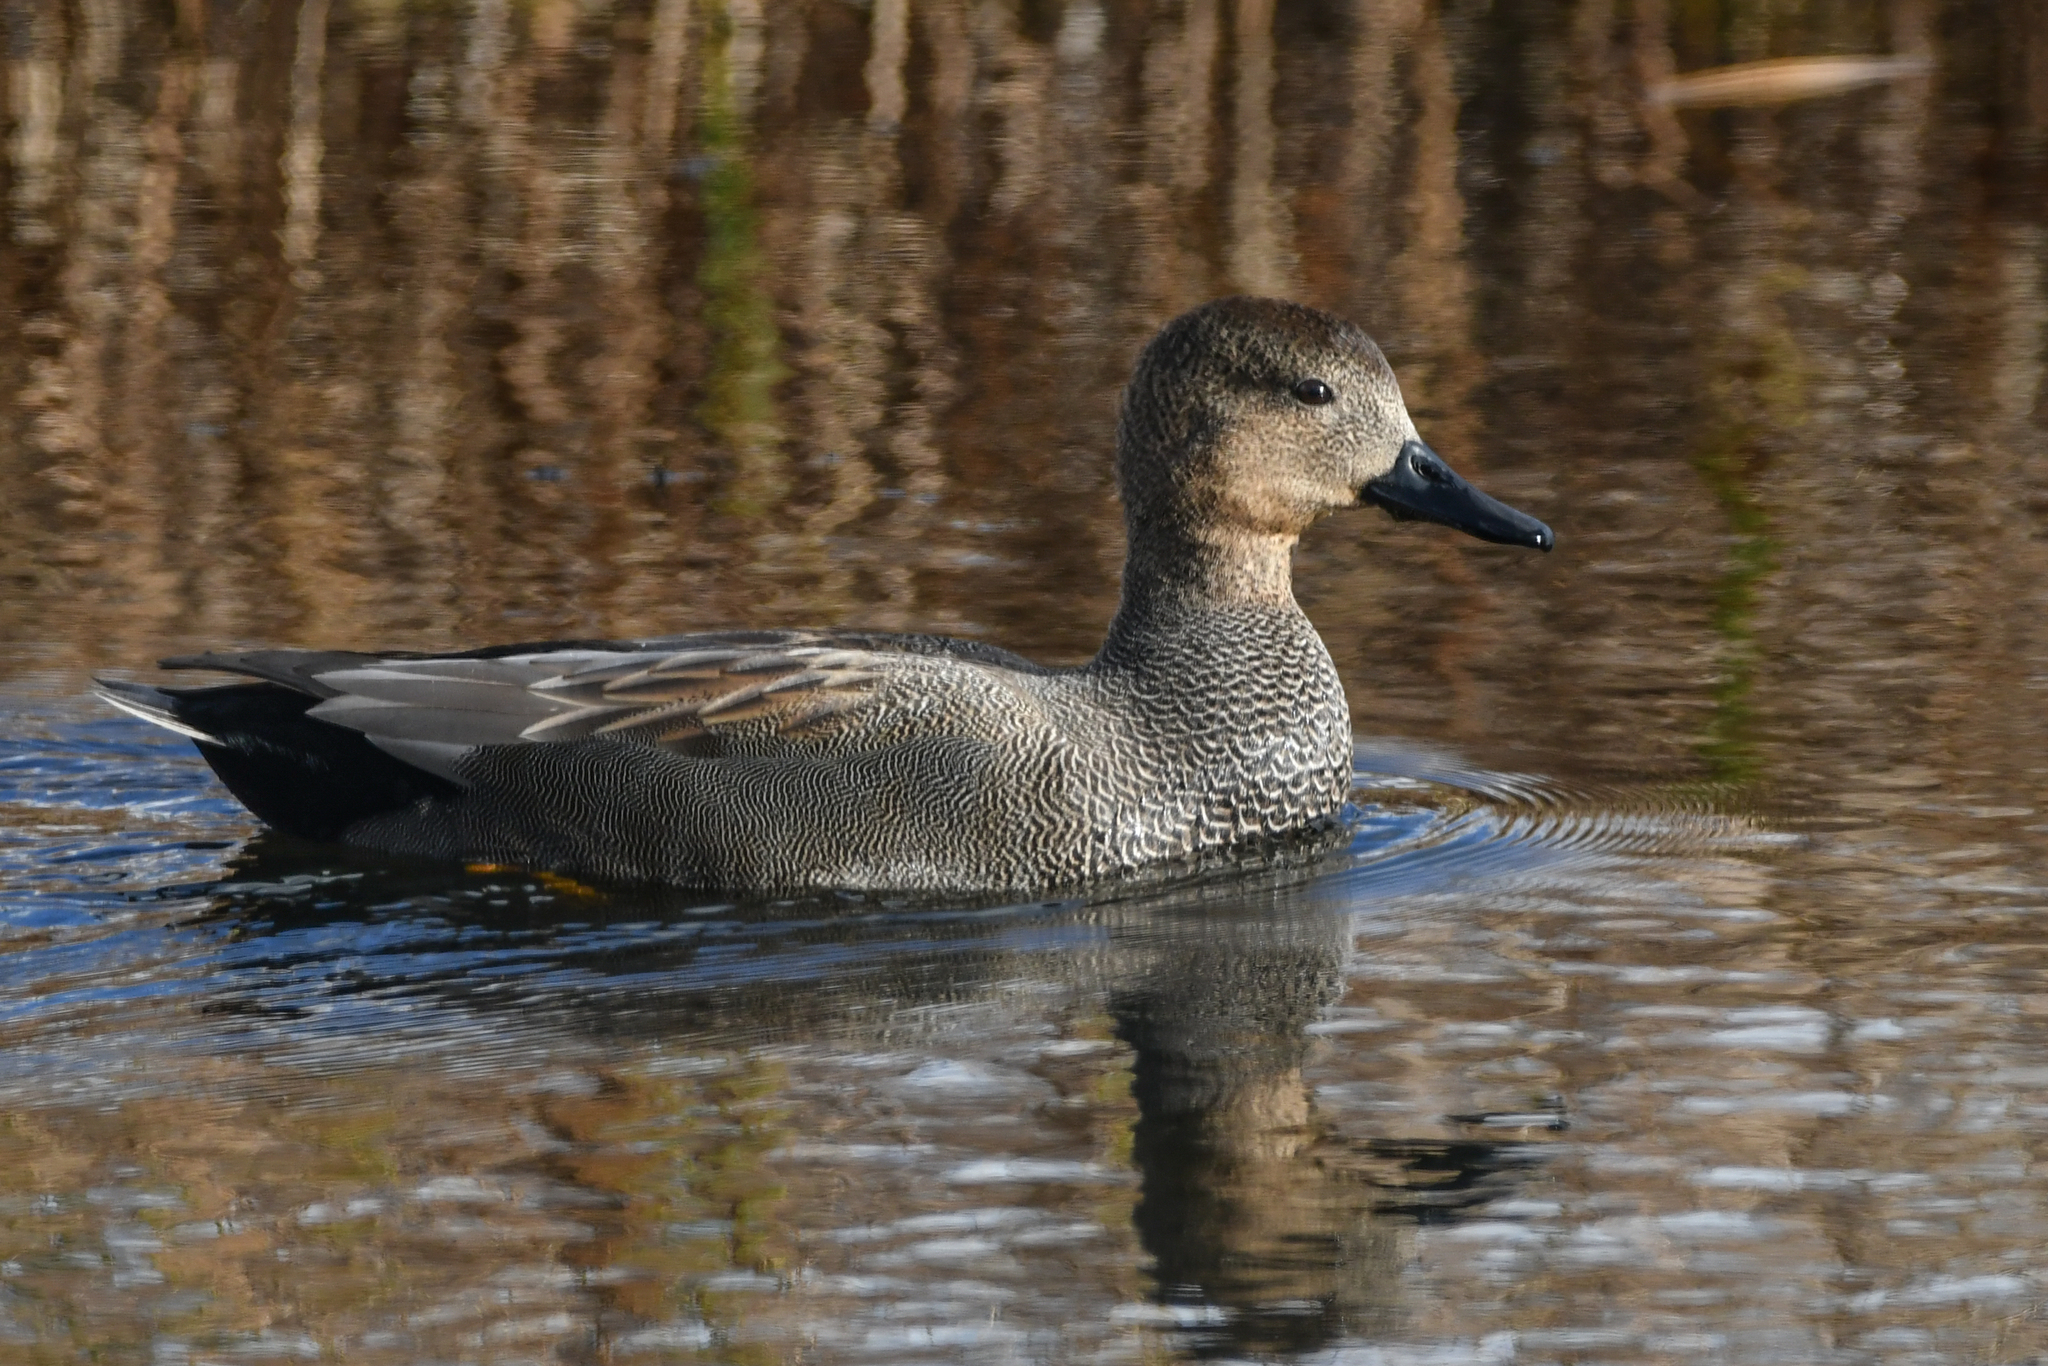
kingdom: Animalia
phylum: Chordata
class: Aves
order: Anseriformes
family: Anatidae
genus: Mareca
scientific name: Mareca strepera
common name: Gadwall
